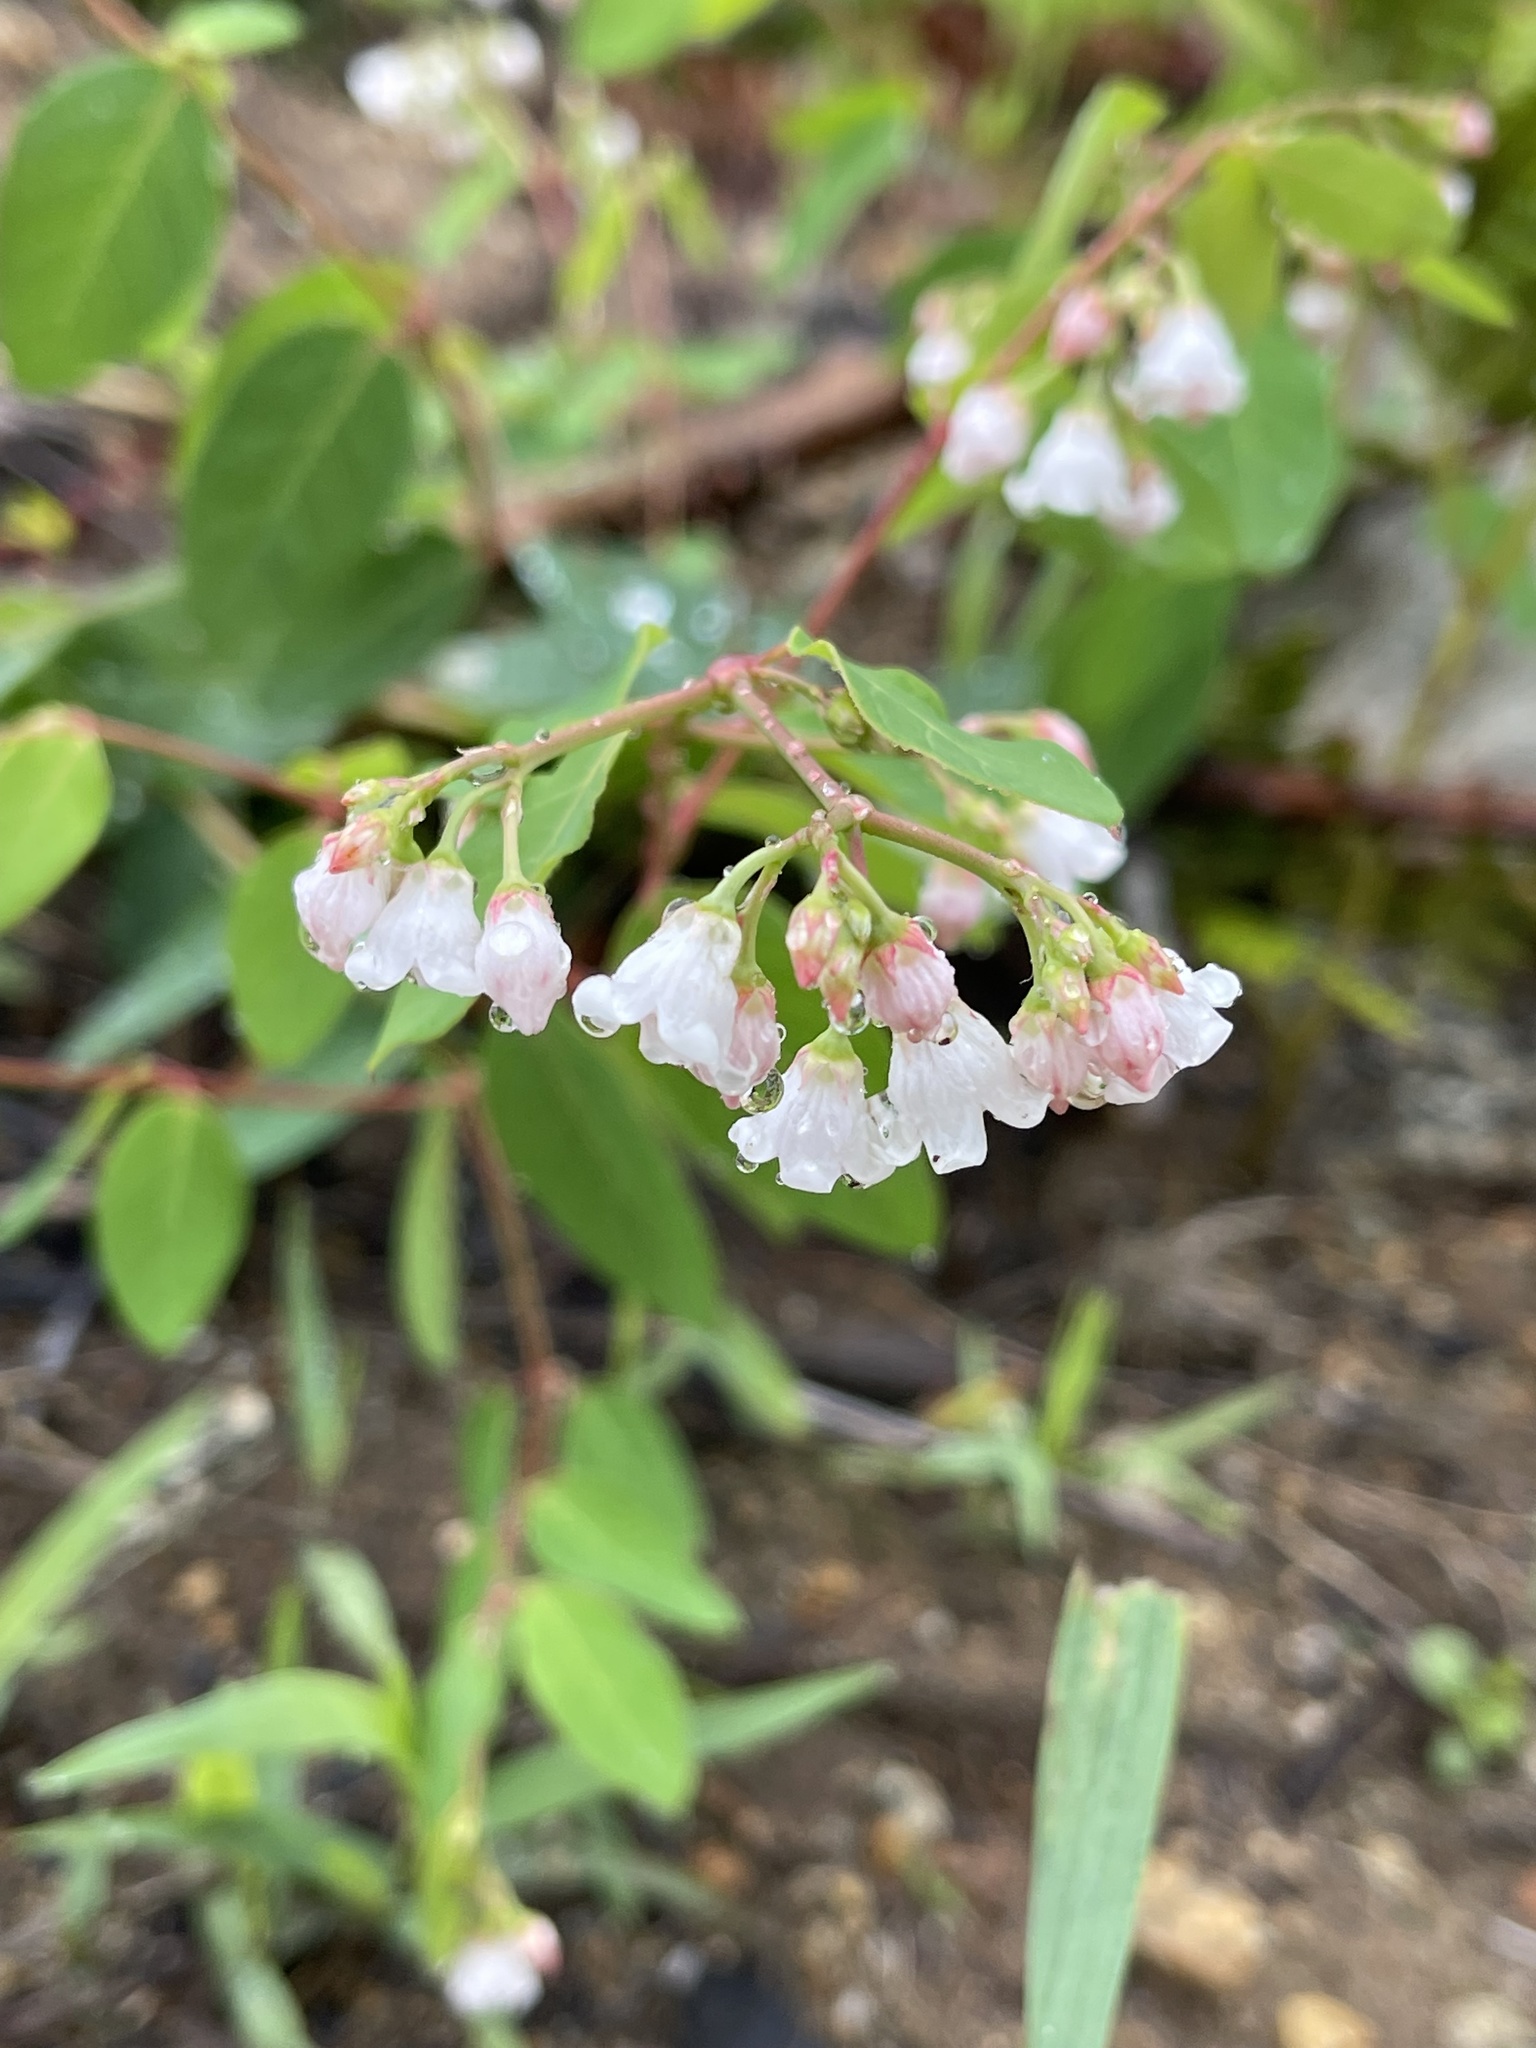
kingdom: Plantae
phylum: Tracheophyta
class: Magnoliopsida
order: Gentianales
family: Apocynaceae
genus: Apocynum
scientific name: Apocynum androsaemifolium
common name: Spreading dogbane
